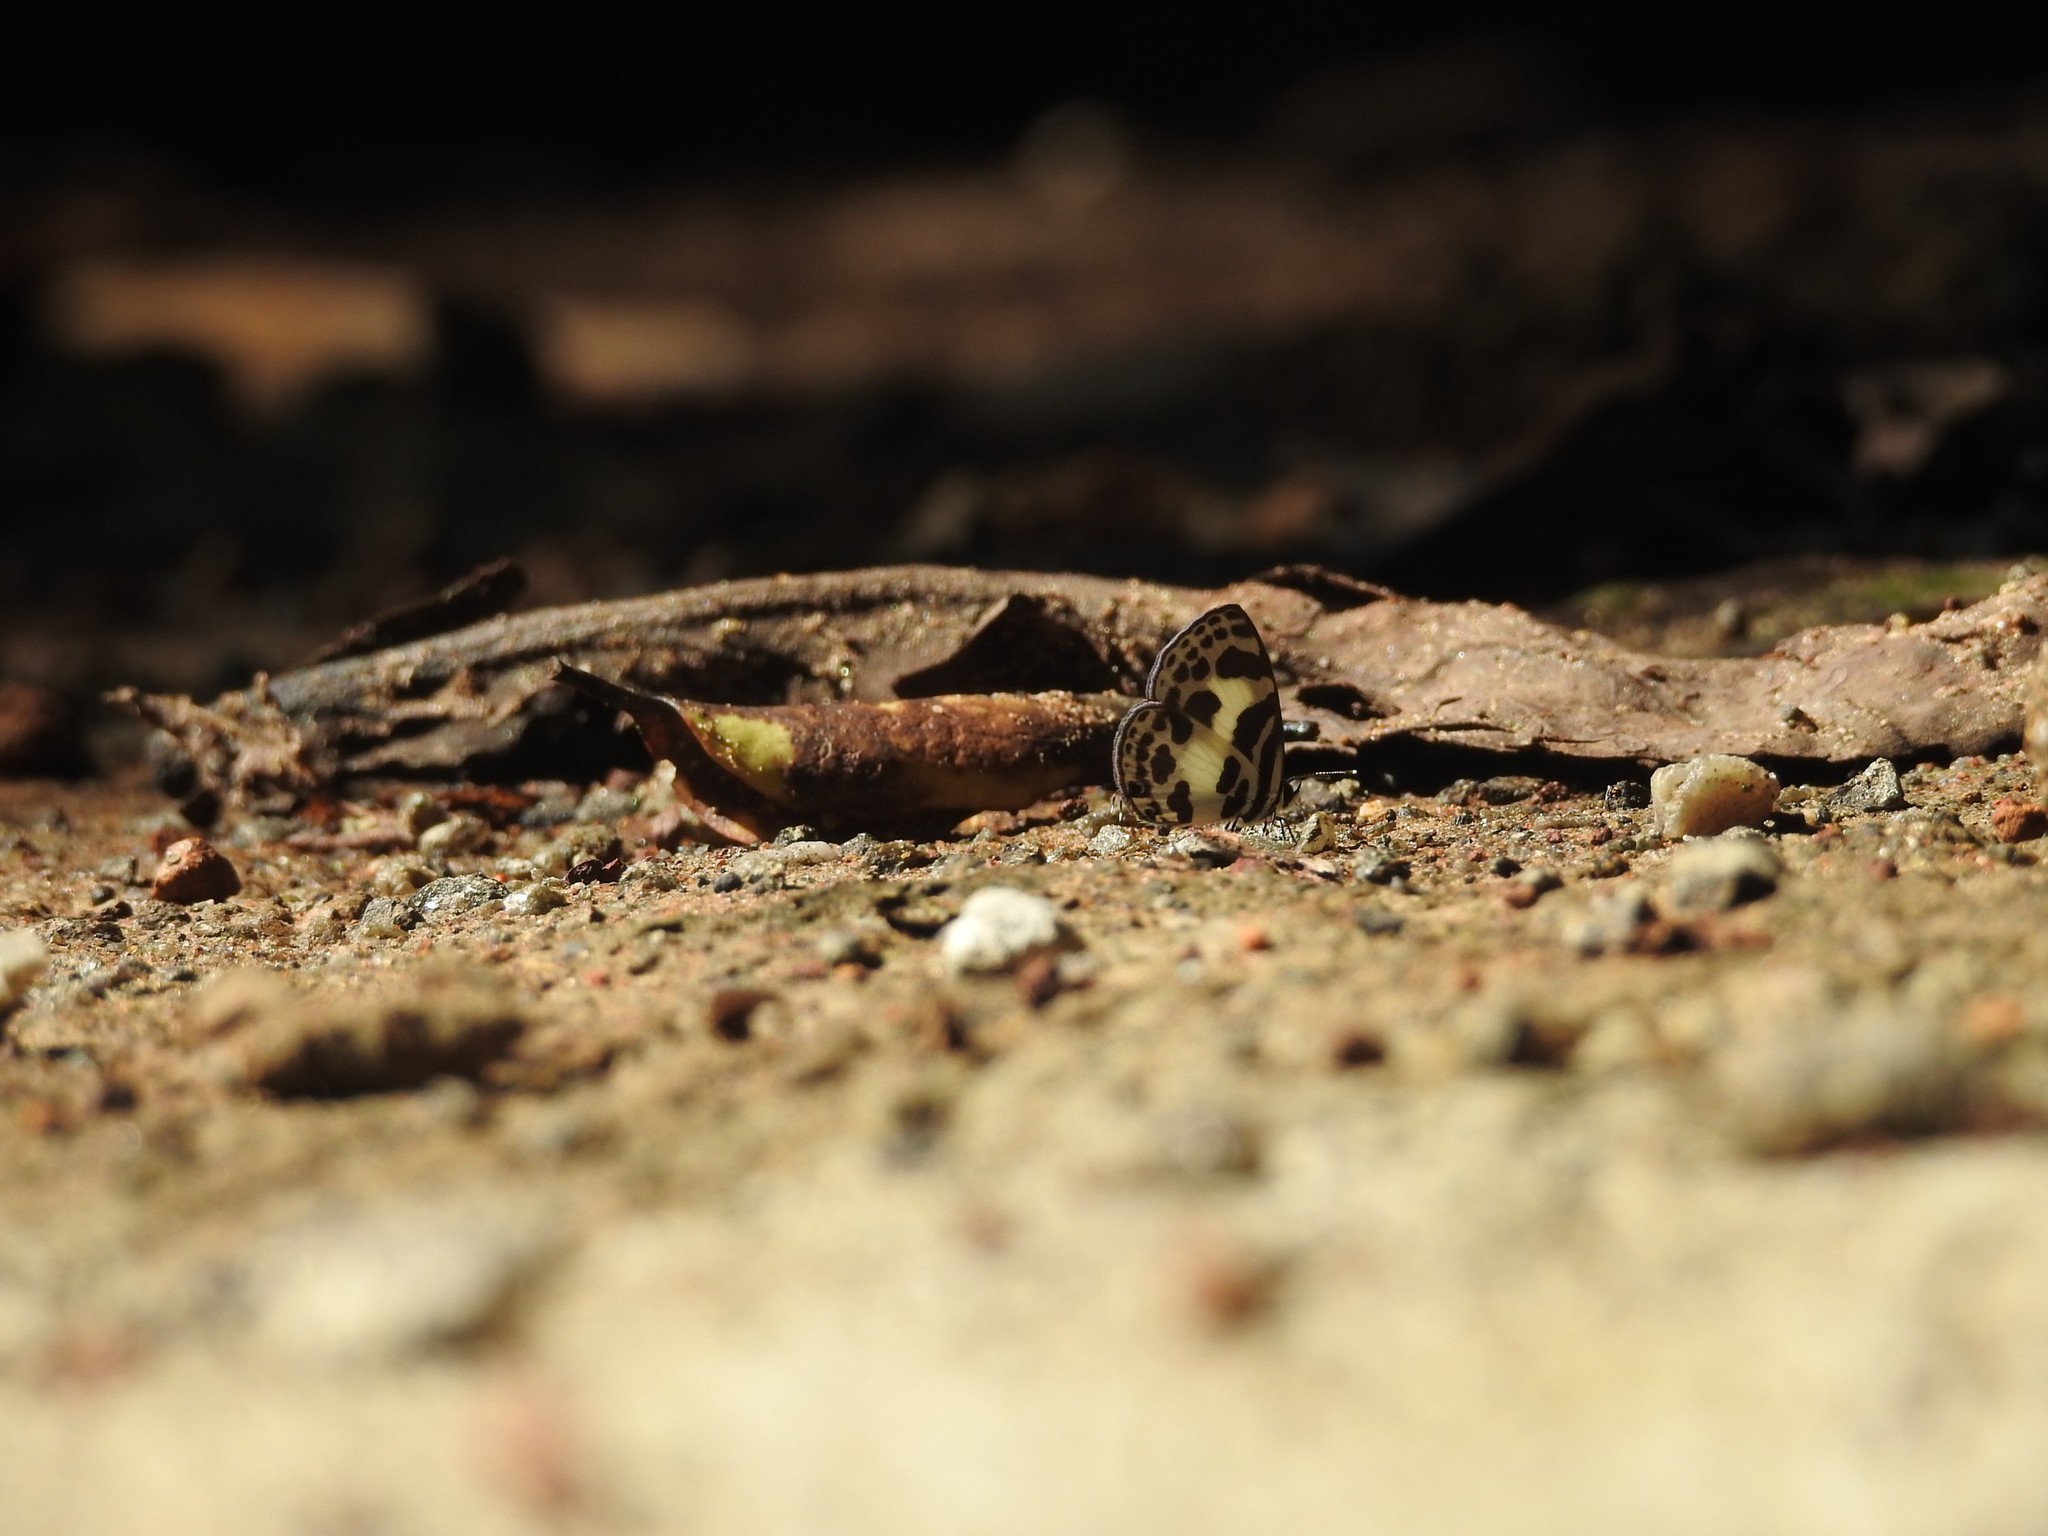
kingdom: Animalia
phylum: Arthropoda
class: Insecta
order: Lepidoptera
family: Lycaenidae
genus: Discolampa
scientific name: Discolampa ethion
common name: Banded blue pierrot
